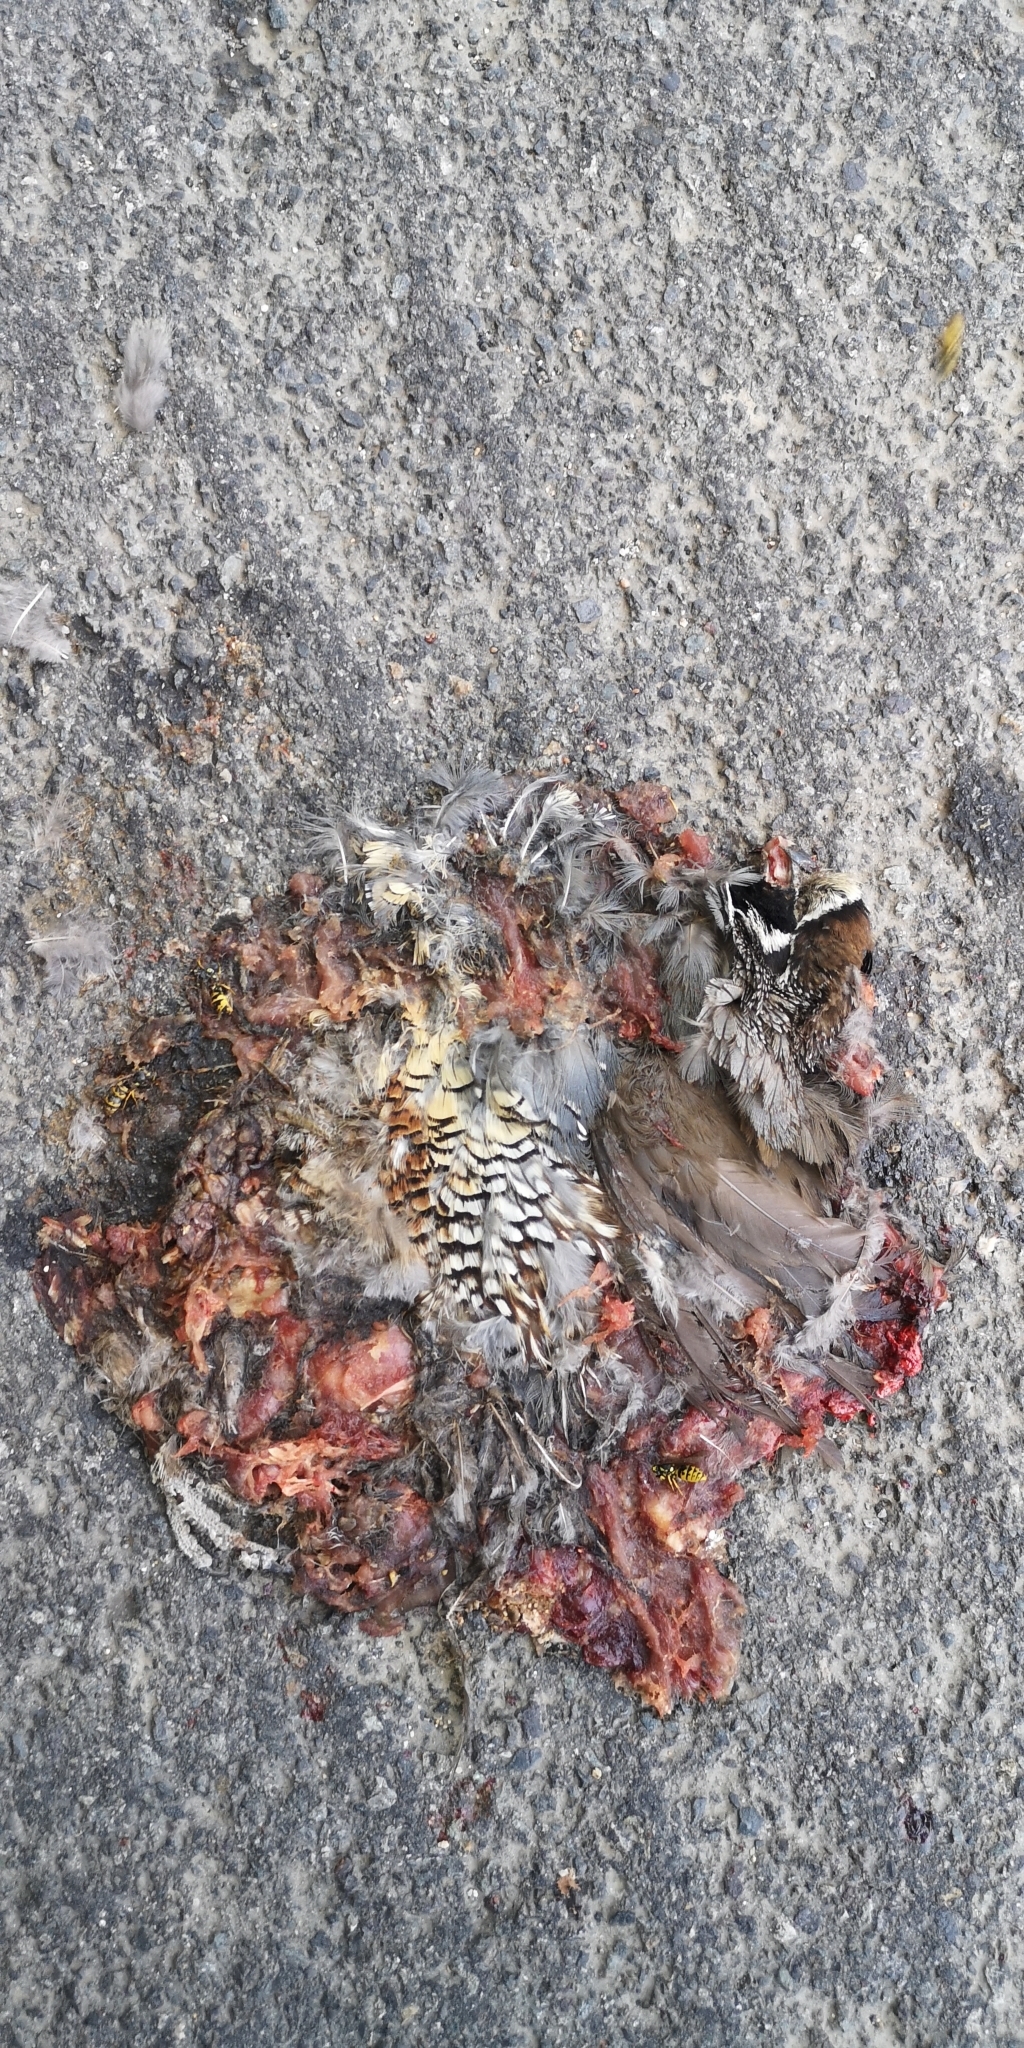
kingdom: Animalia
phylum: Arthropoda
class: Insecta
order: Hymenoptera
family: Vespidae
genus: Vespula
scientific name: Vespula germanica
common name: German wasp
